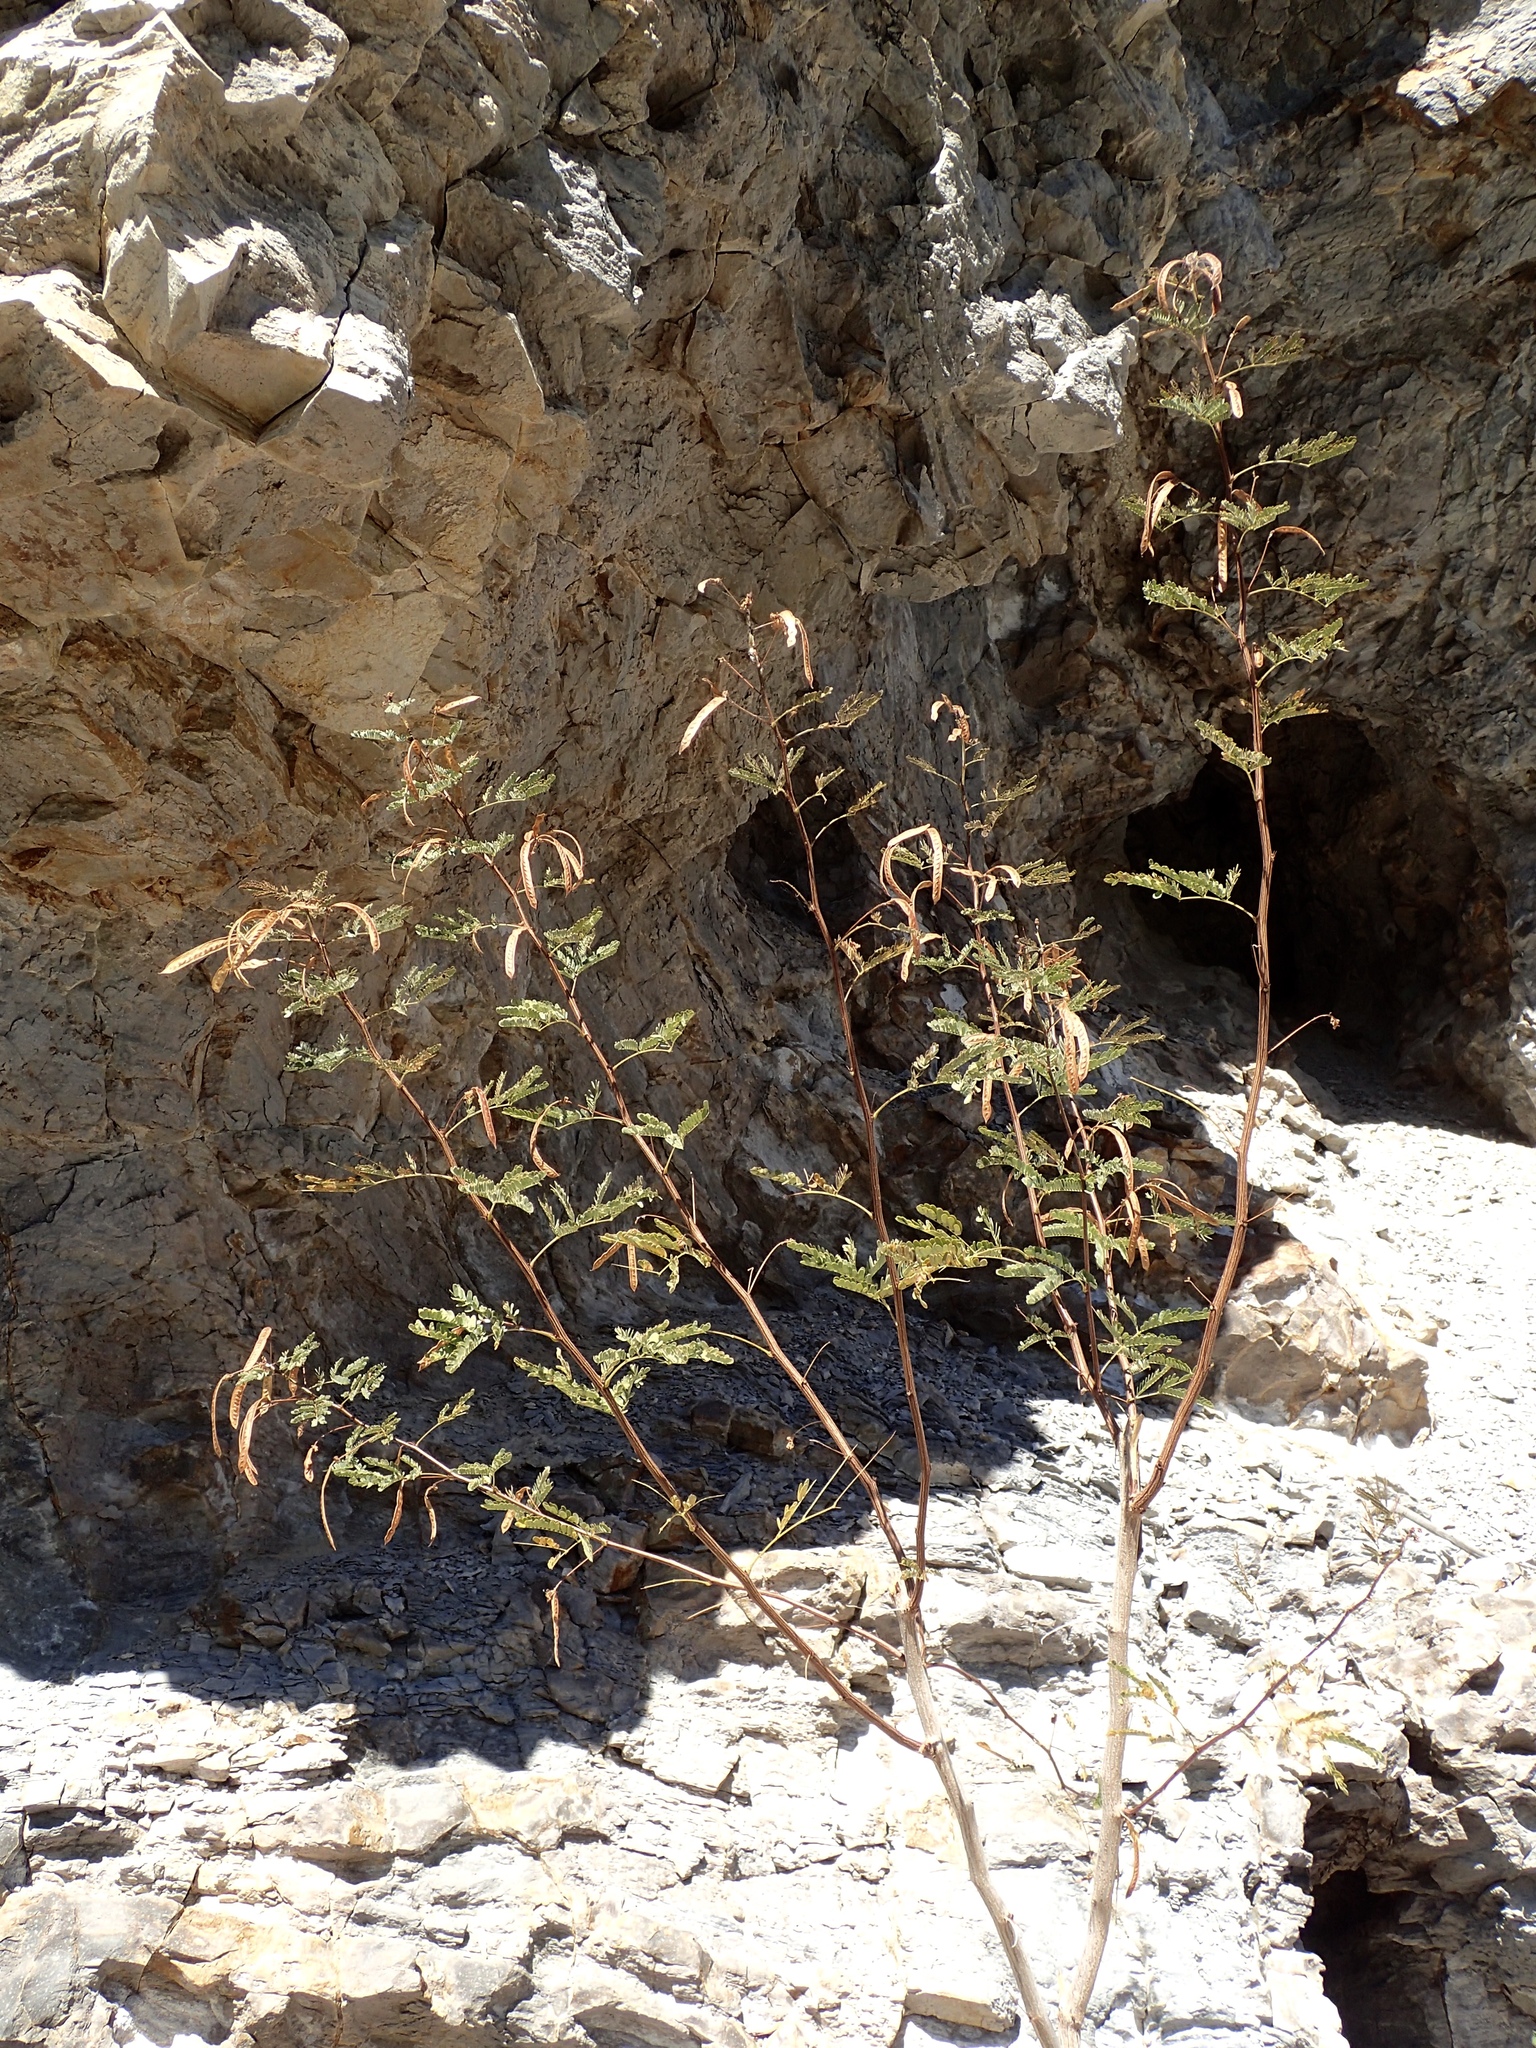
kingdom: Plantae
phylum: Tracheophyta
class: Magnoliopsida
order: Fabales
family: Fabaceae
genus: Desmanthus
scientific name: Desmanthus fruticosus
